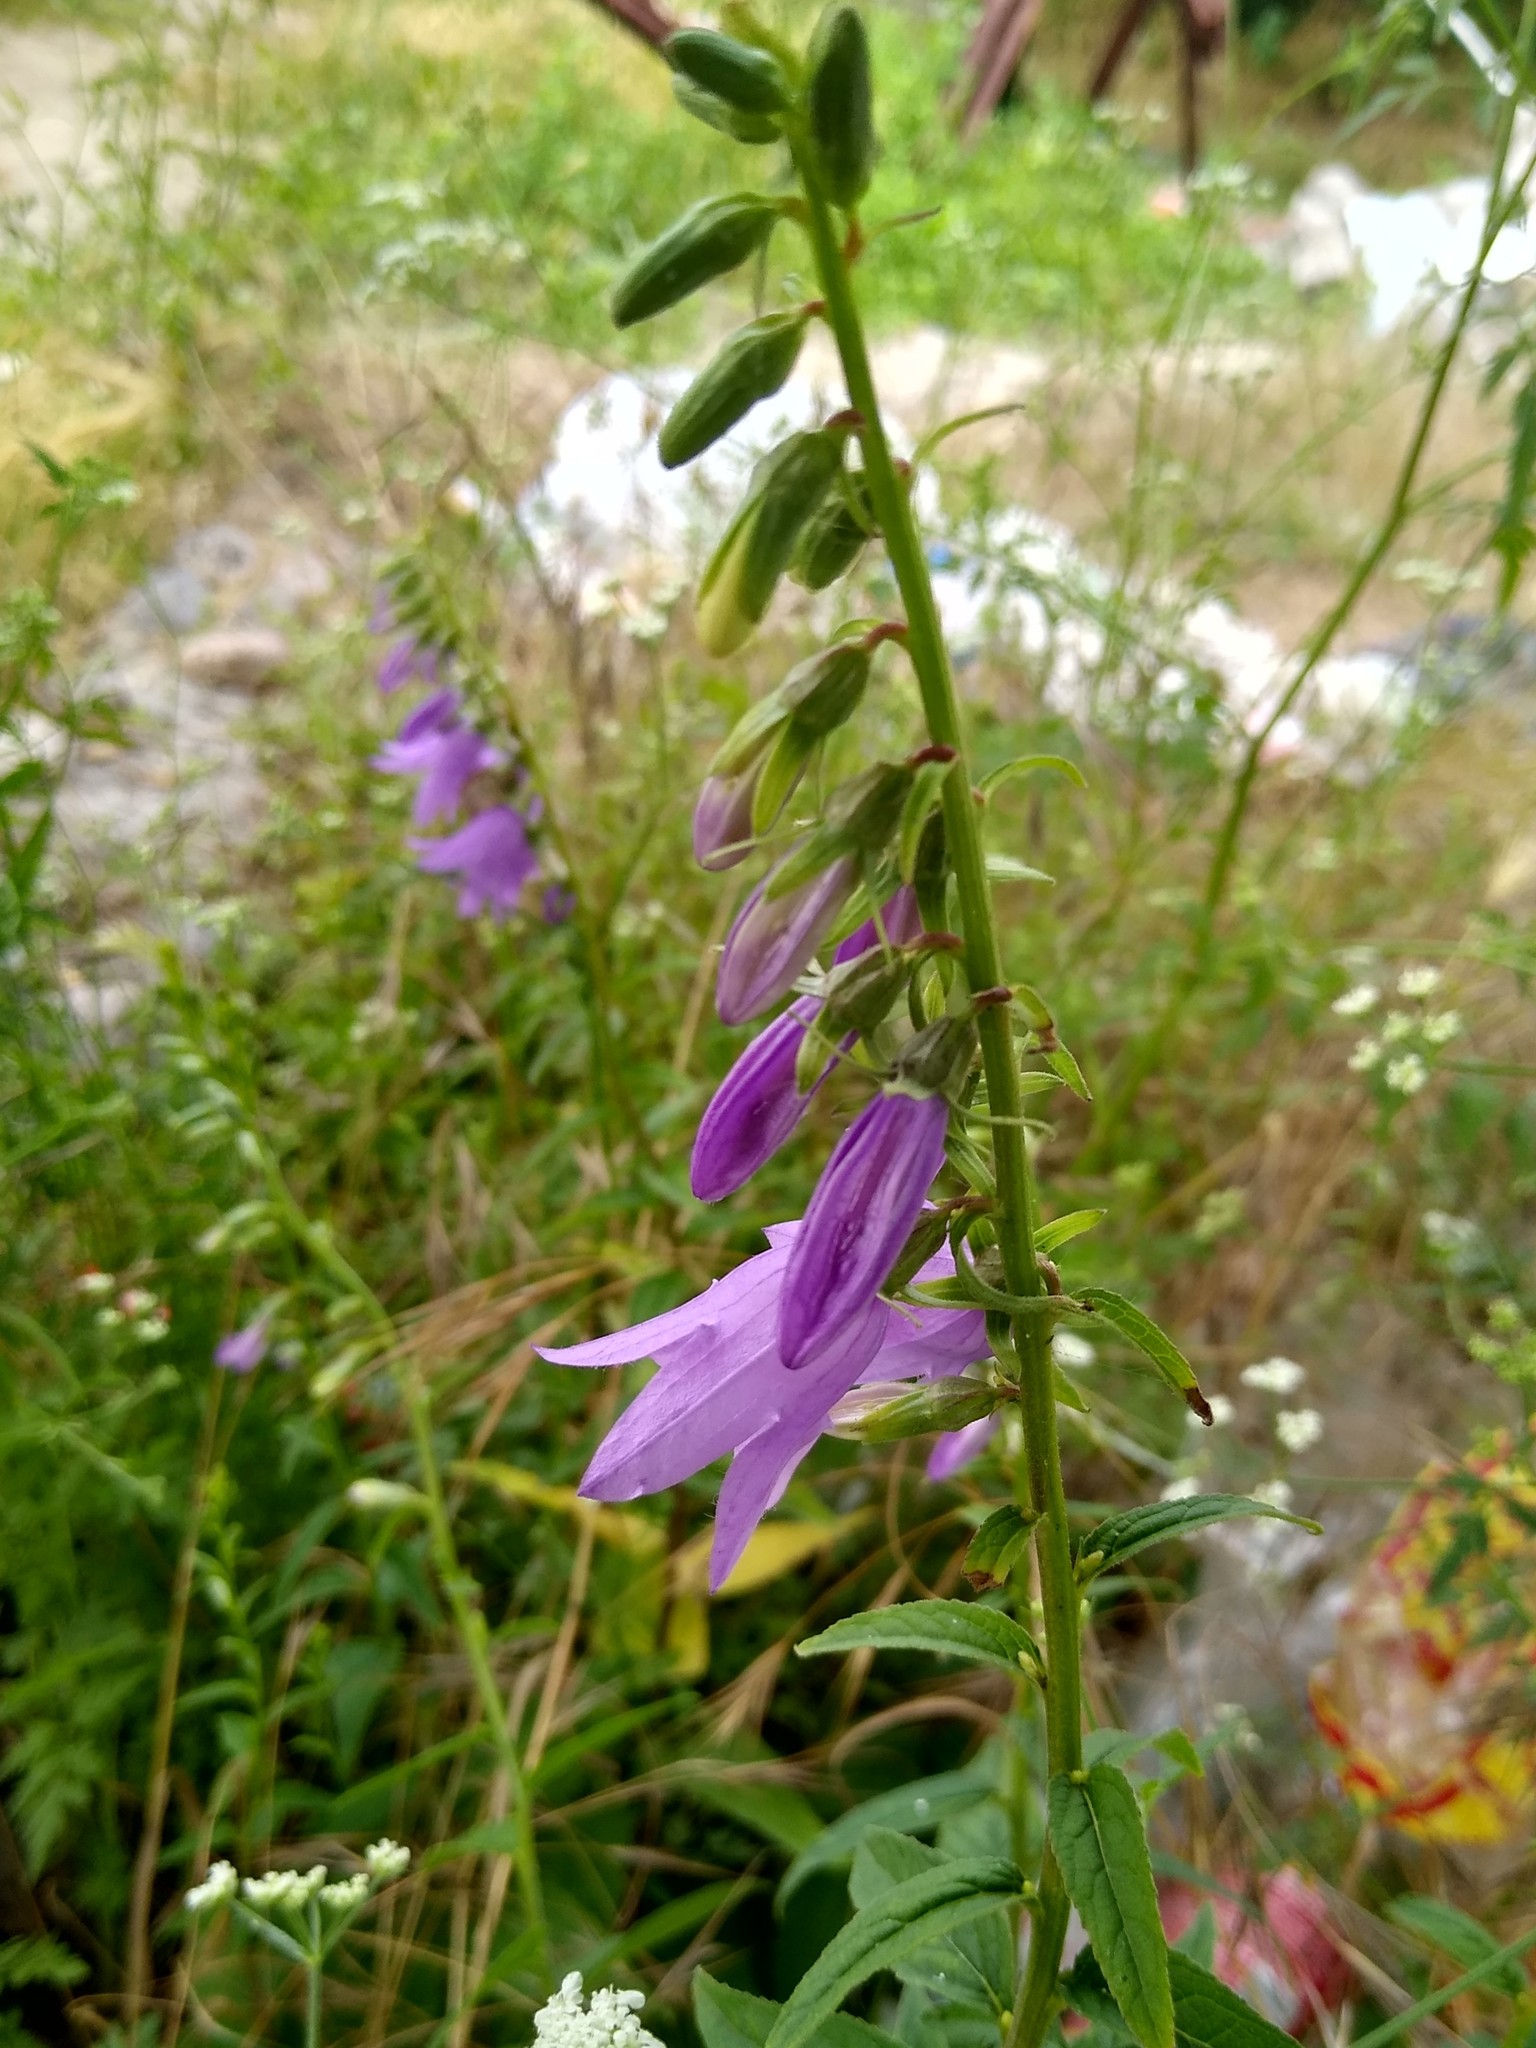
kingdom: Plantae
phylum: Tracheophyta
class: Magnoliopsida
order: Asterales
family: Campanulaceae
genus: Campanula
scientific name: Campanula rapunculoides
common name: Creeping bellflower
